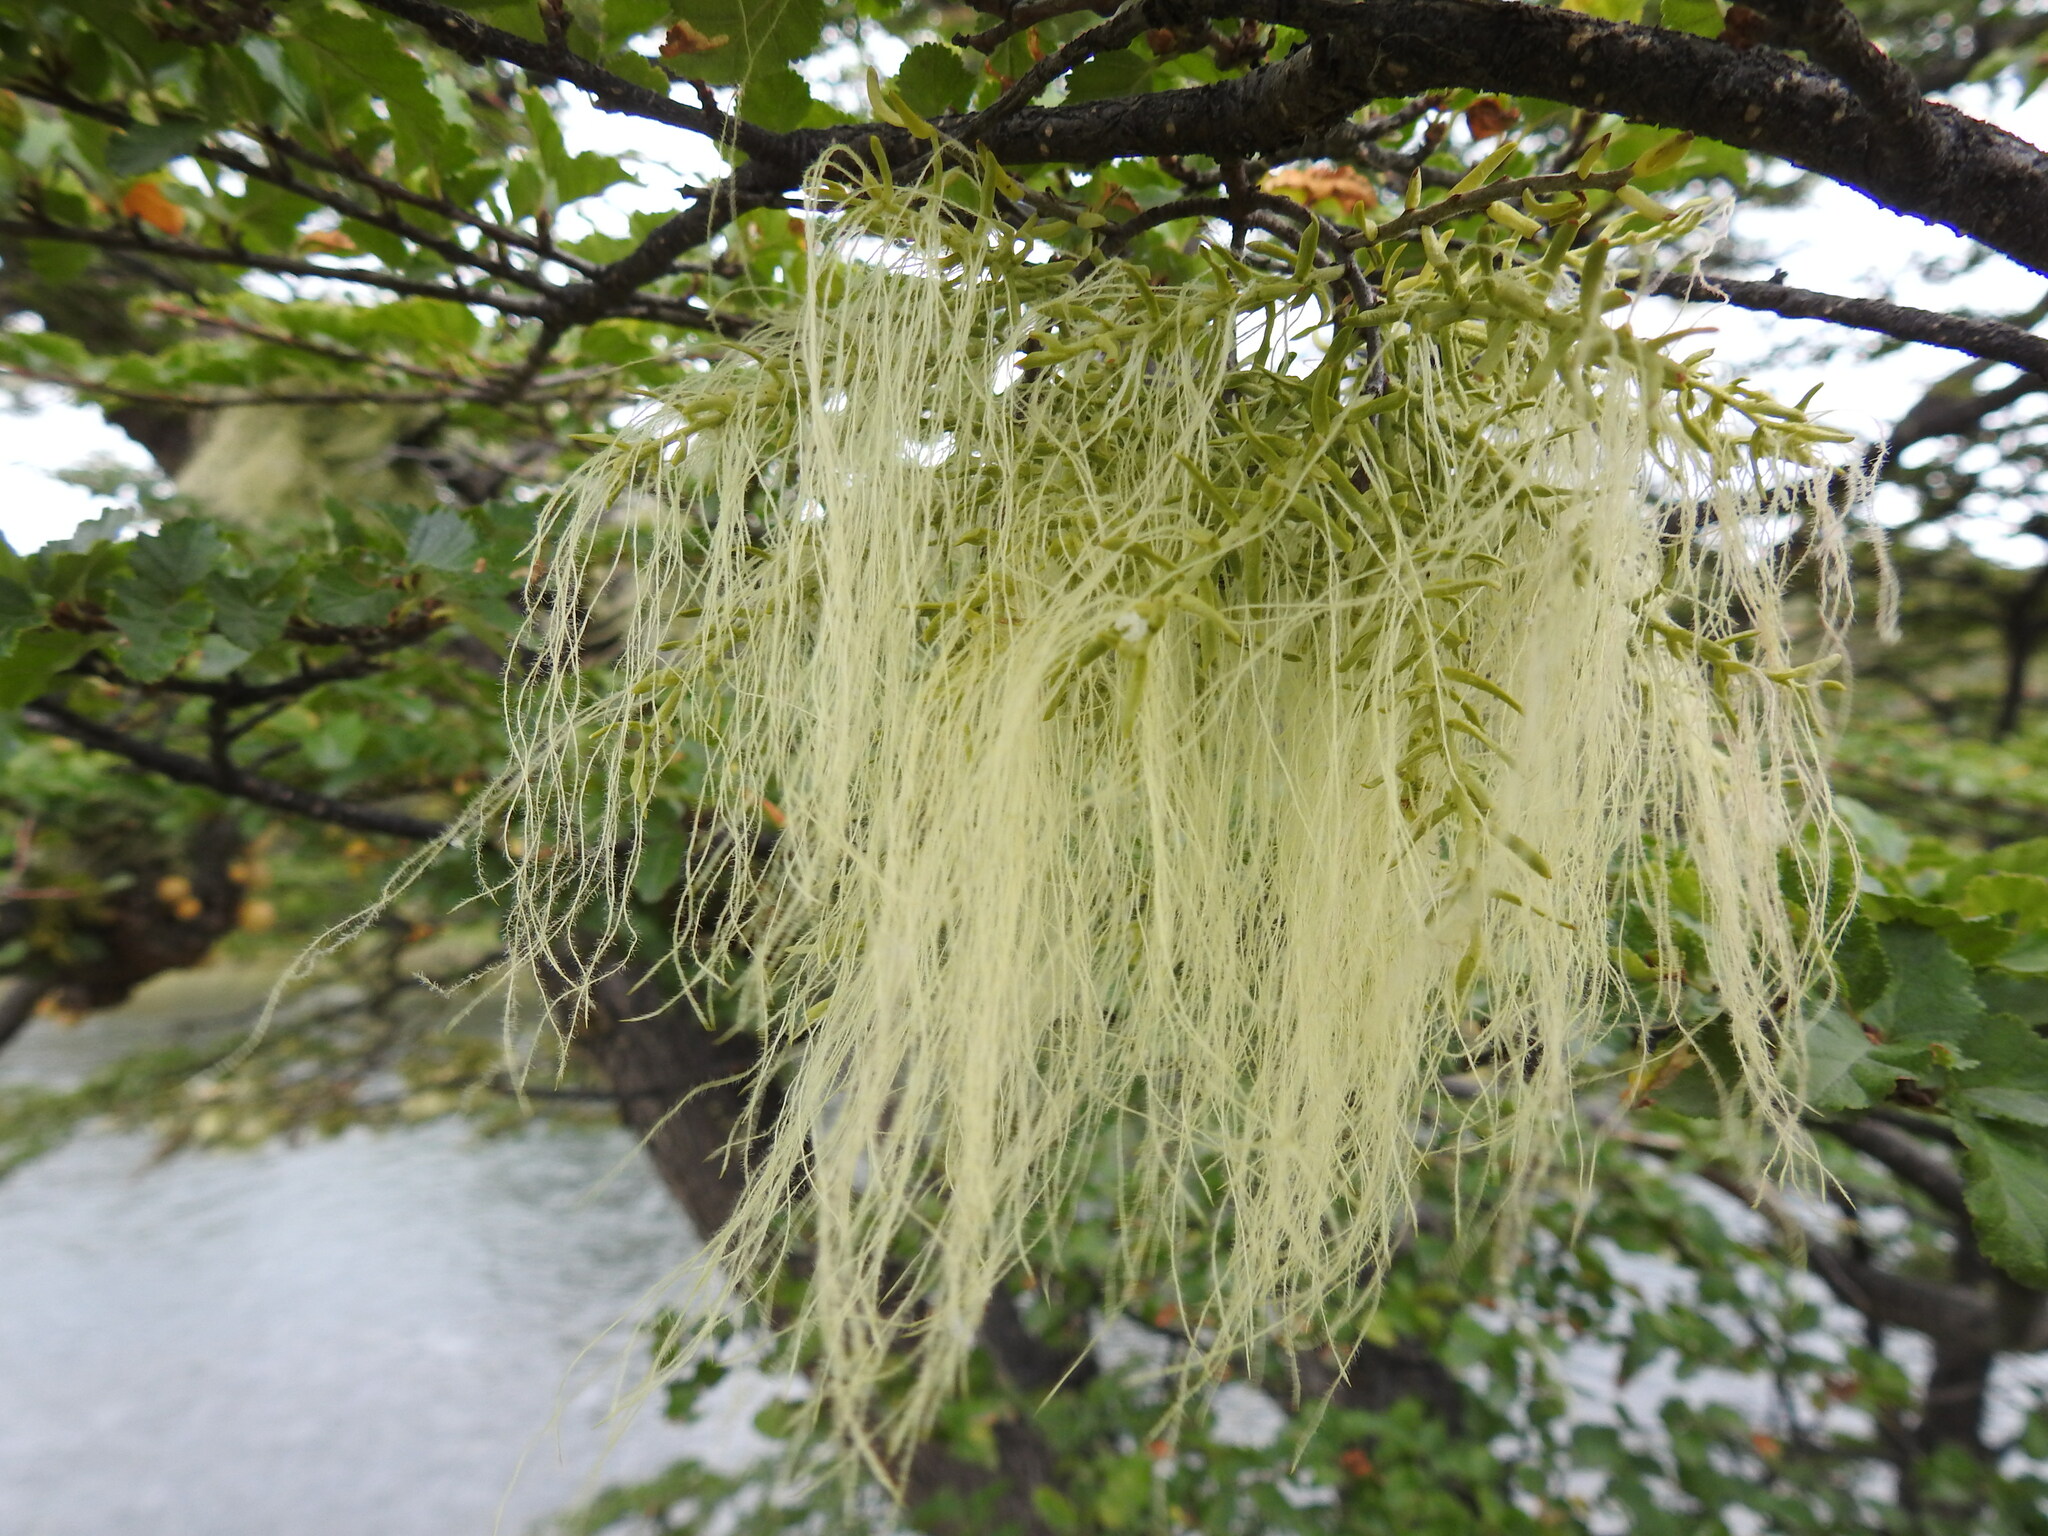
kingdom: Plantae
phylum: Tracheophyta
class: Magnoliopsida
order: Santalales
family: Misodendraceae
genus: Misodendrum
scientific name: Misodendrum linearifolium
